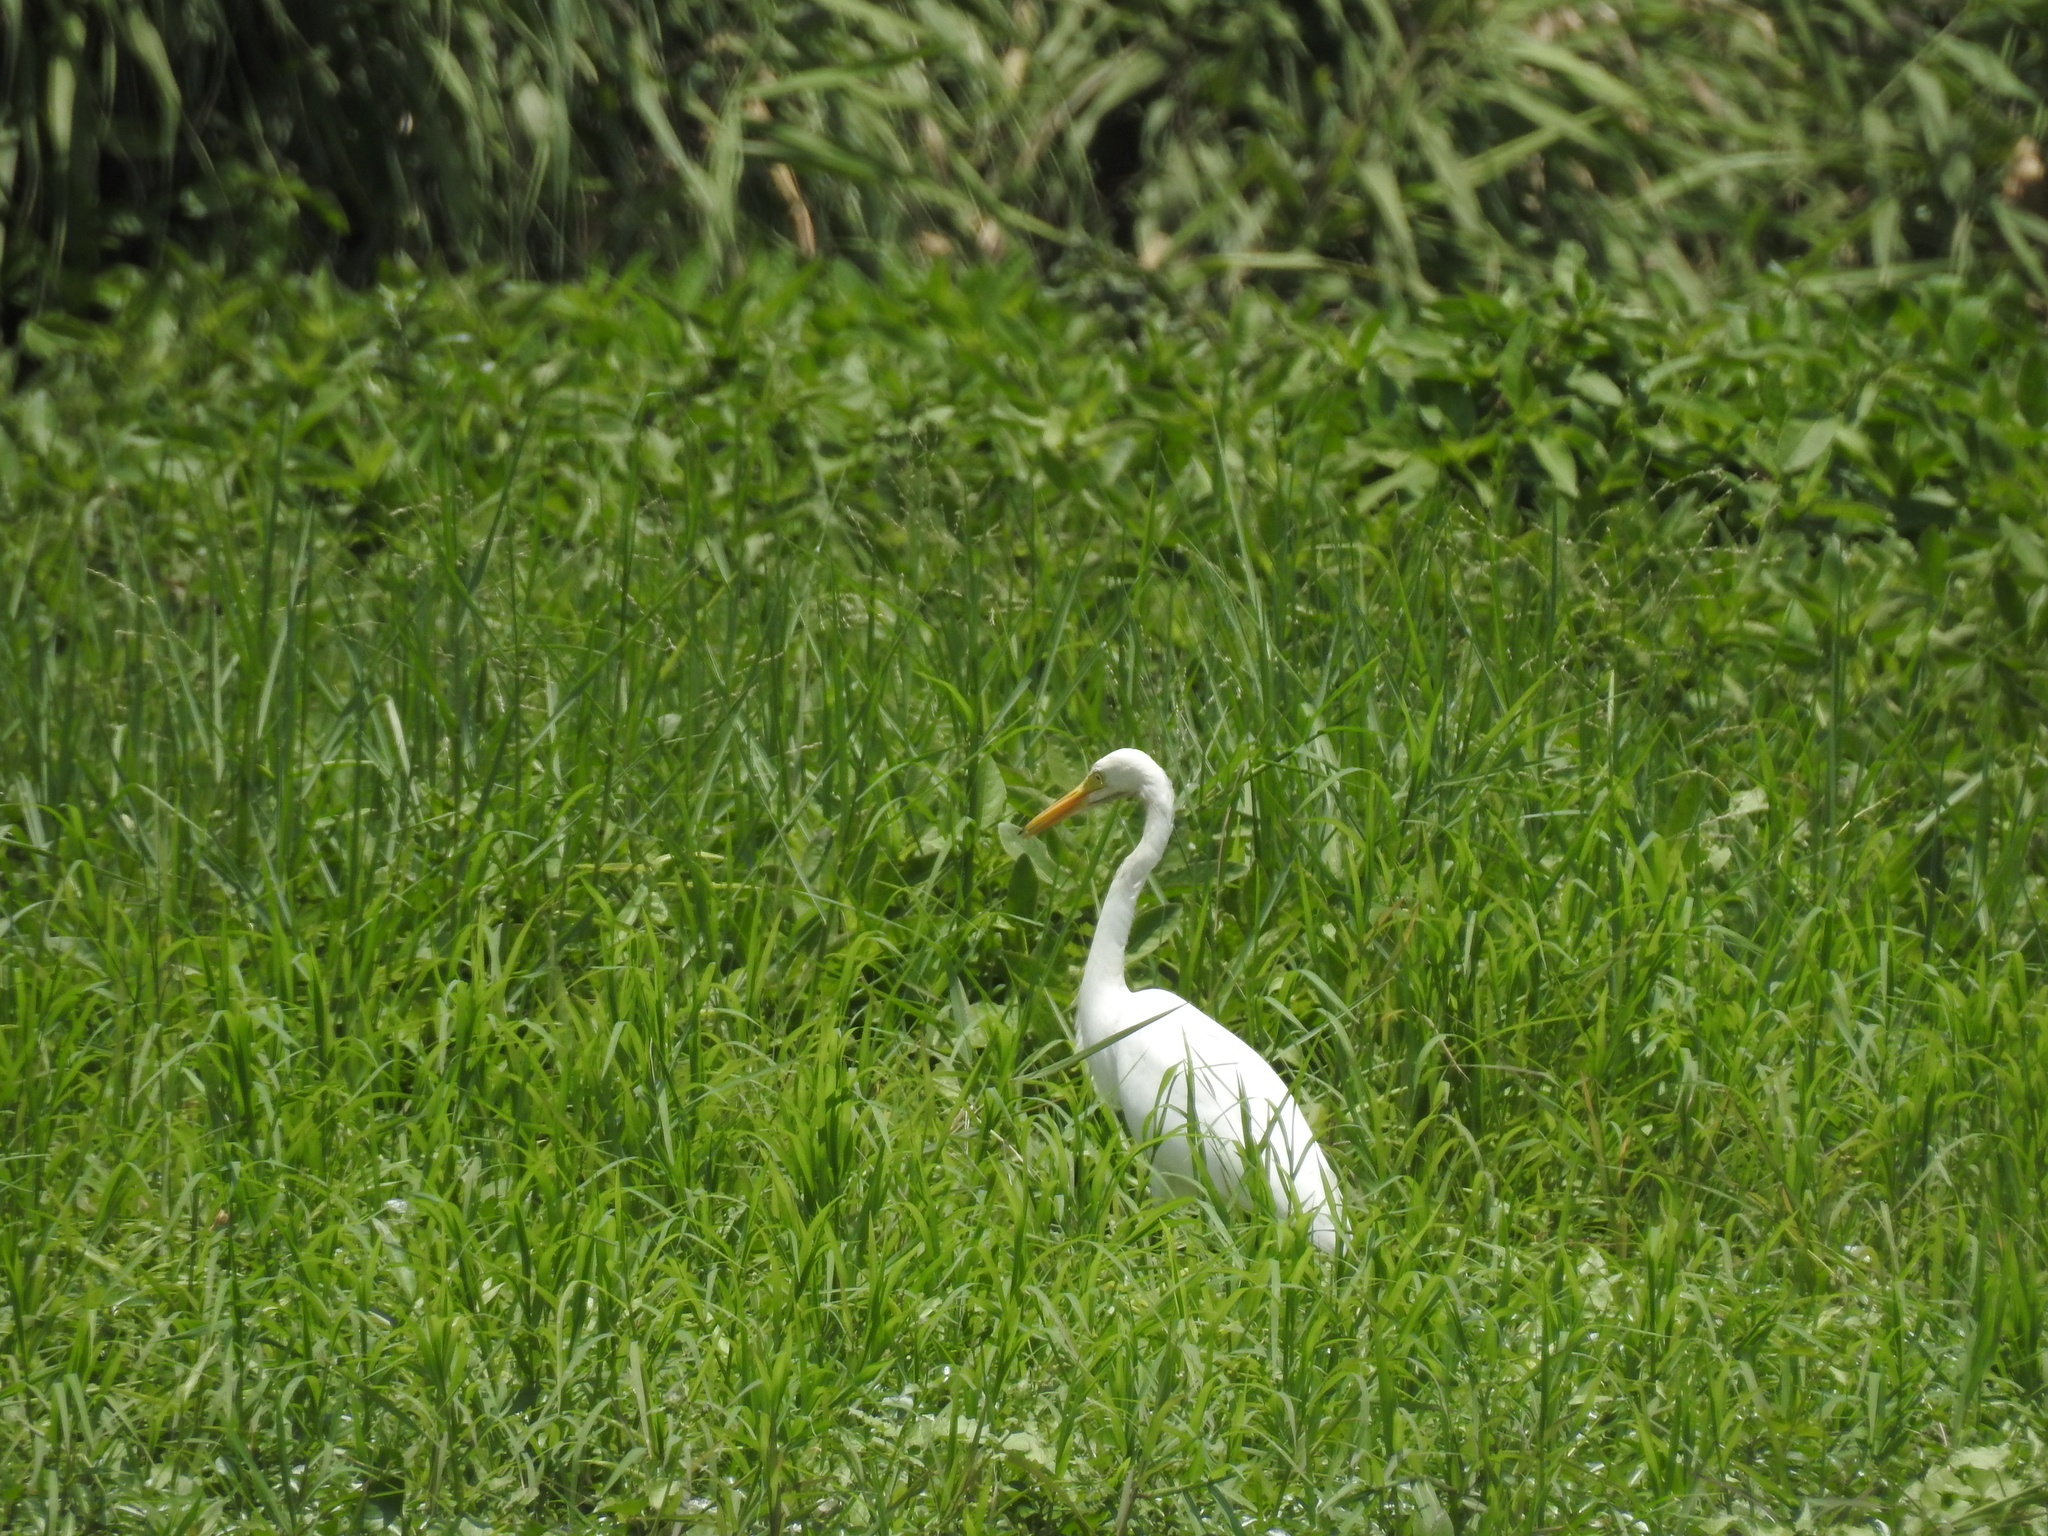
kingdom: Animalia
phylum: Chordata
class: Aves
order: Pelecaniformes
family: Ardeidae
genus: Egretta
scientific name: Egretta intermedia
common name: Intermediate egret
